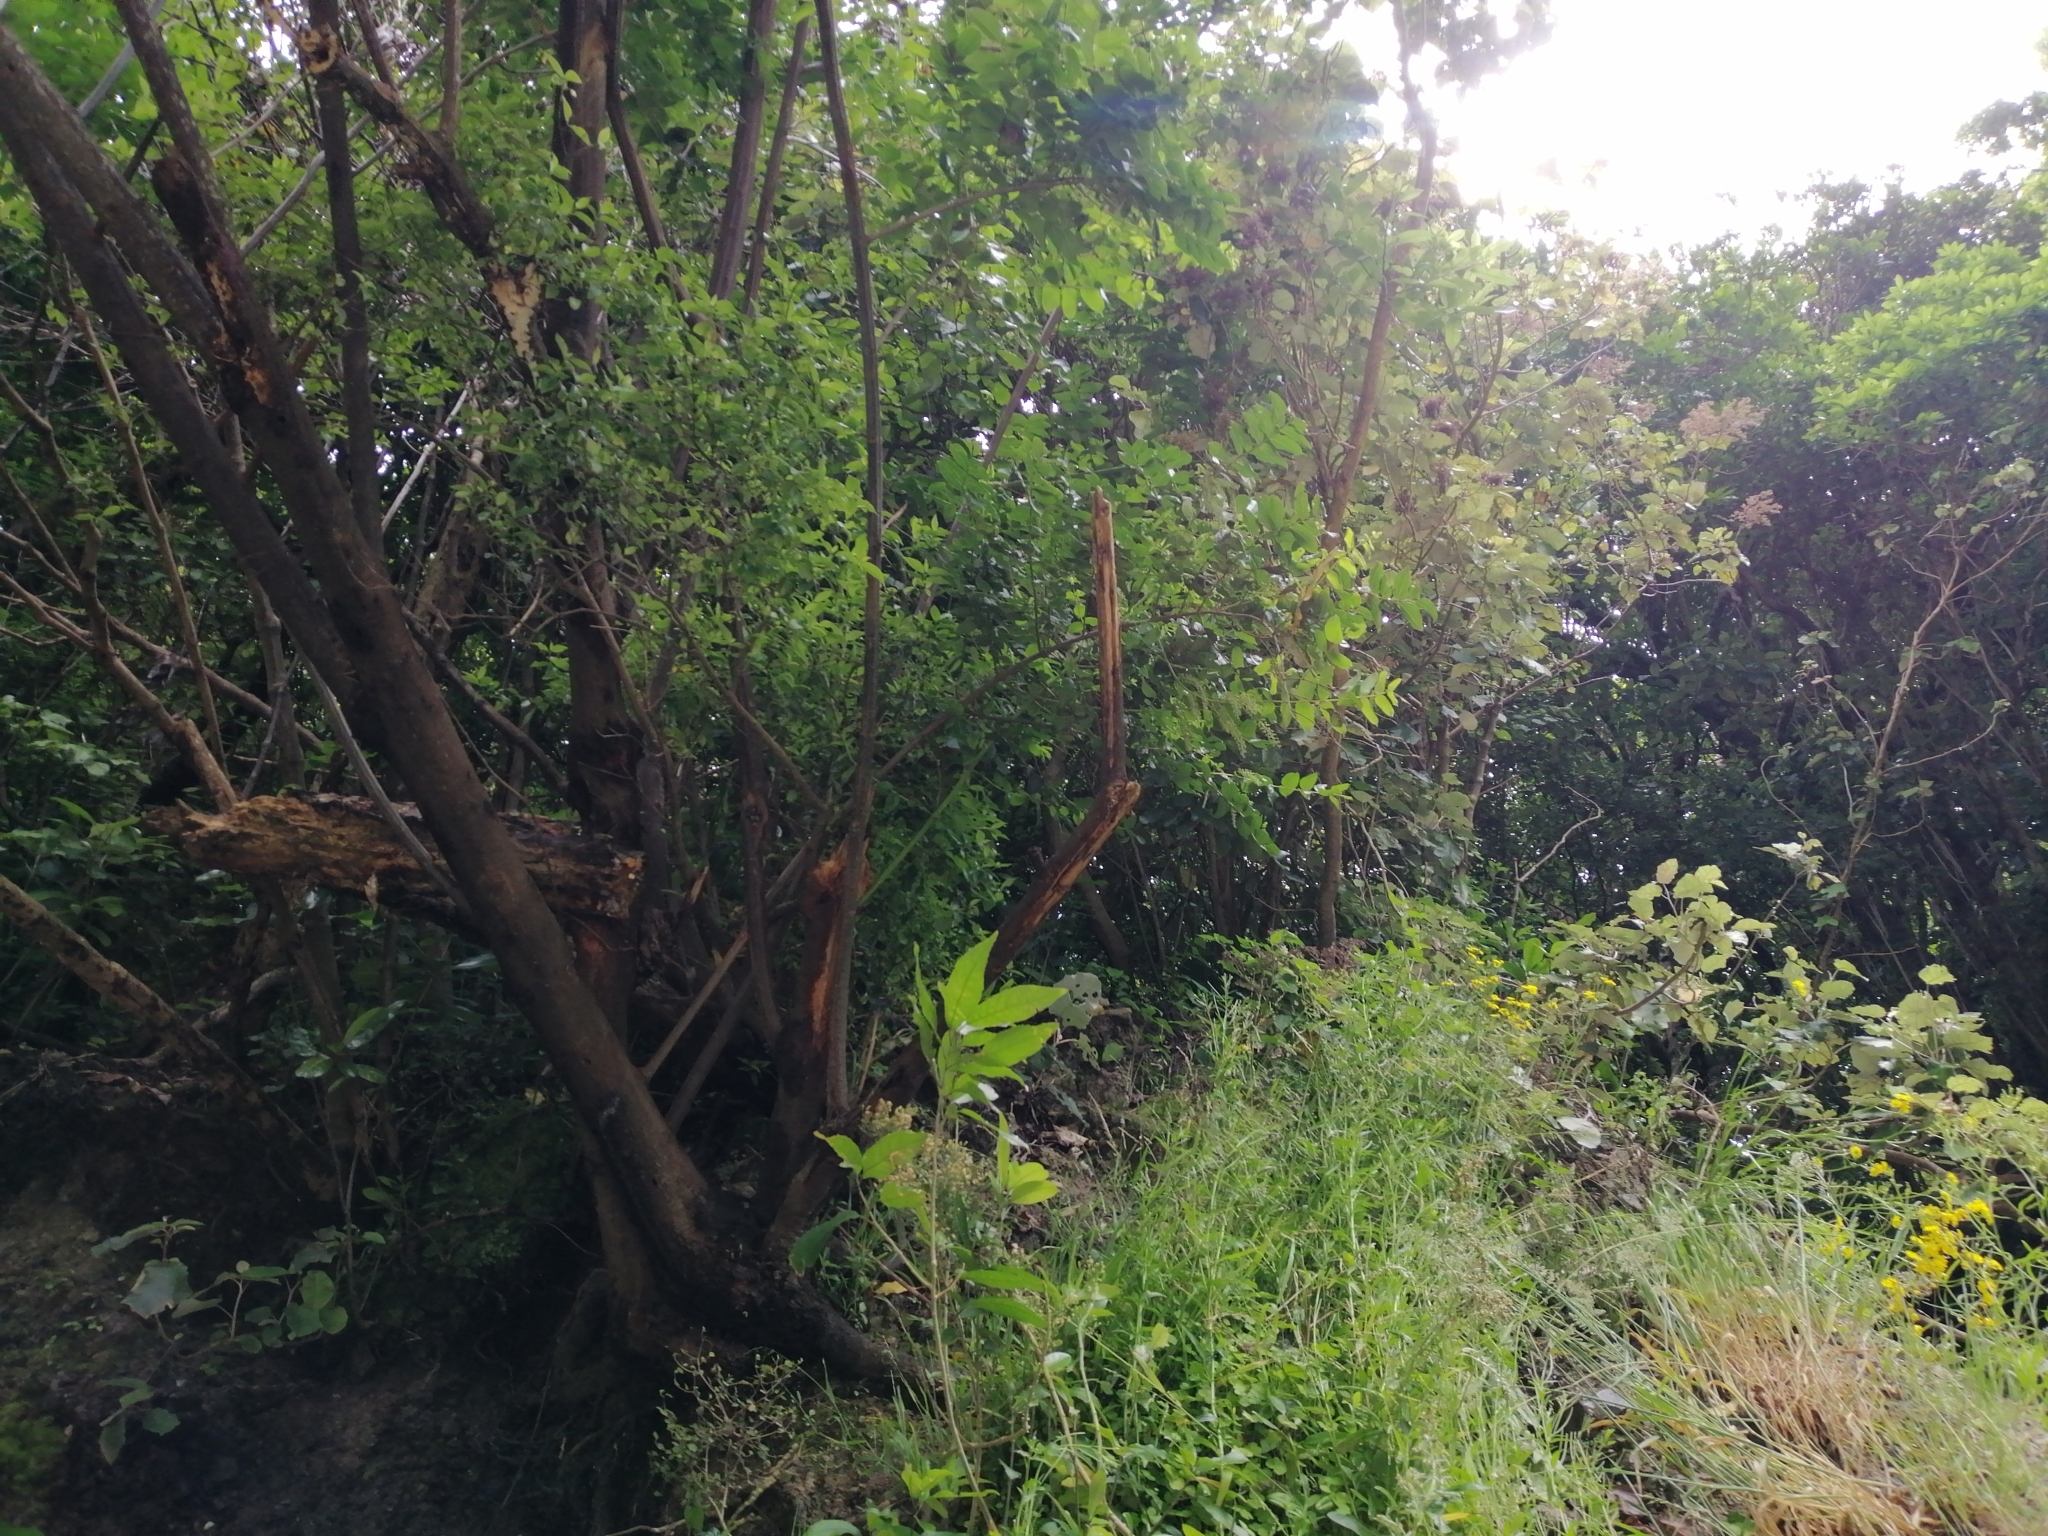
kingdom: Plantae
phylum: Tracheophyta
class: Magnoliopsida
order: Cucurbitales
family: Coriariaceae
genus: Coriaria
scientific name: Coriaria arborea
